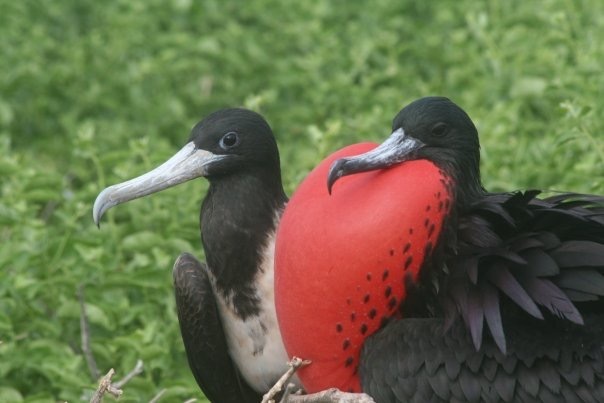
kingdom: Animalia
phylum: Chordata
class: Aves
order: Suliformes
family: Fregatidae
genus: Fregata
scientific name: Fregata magnificens
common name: Magnificent frigatebird
